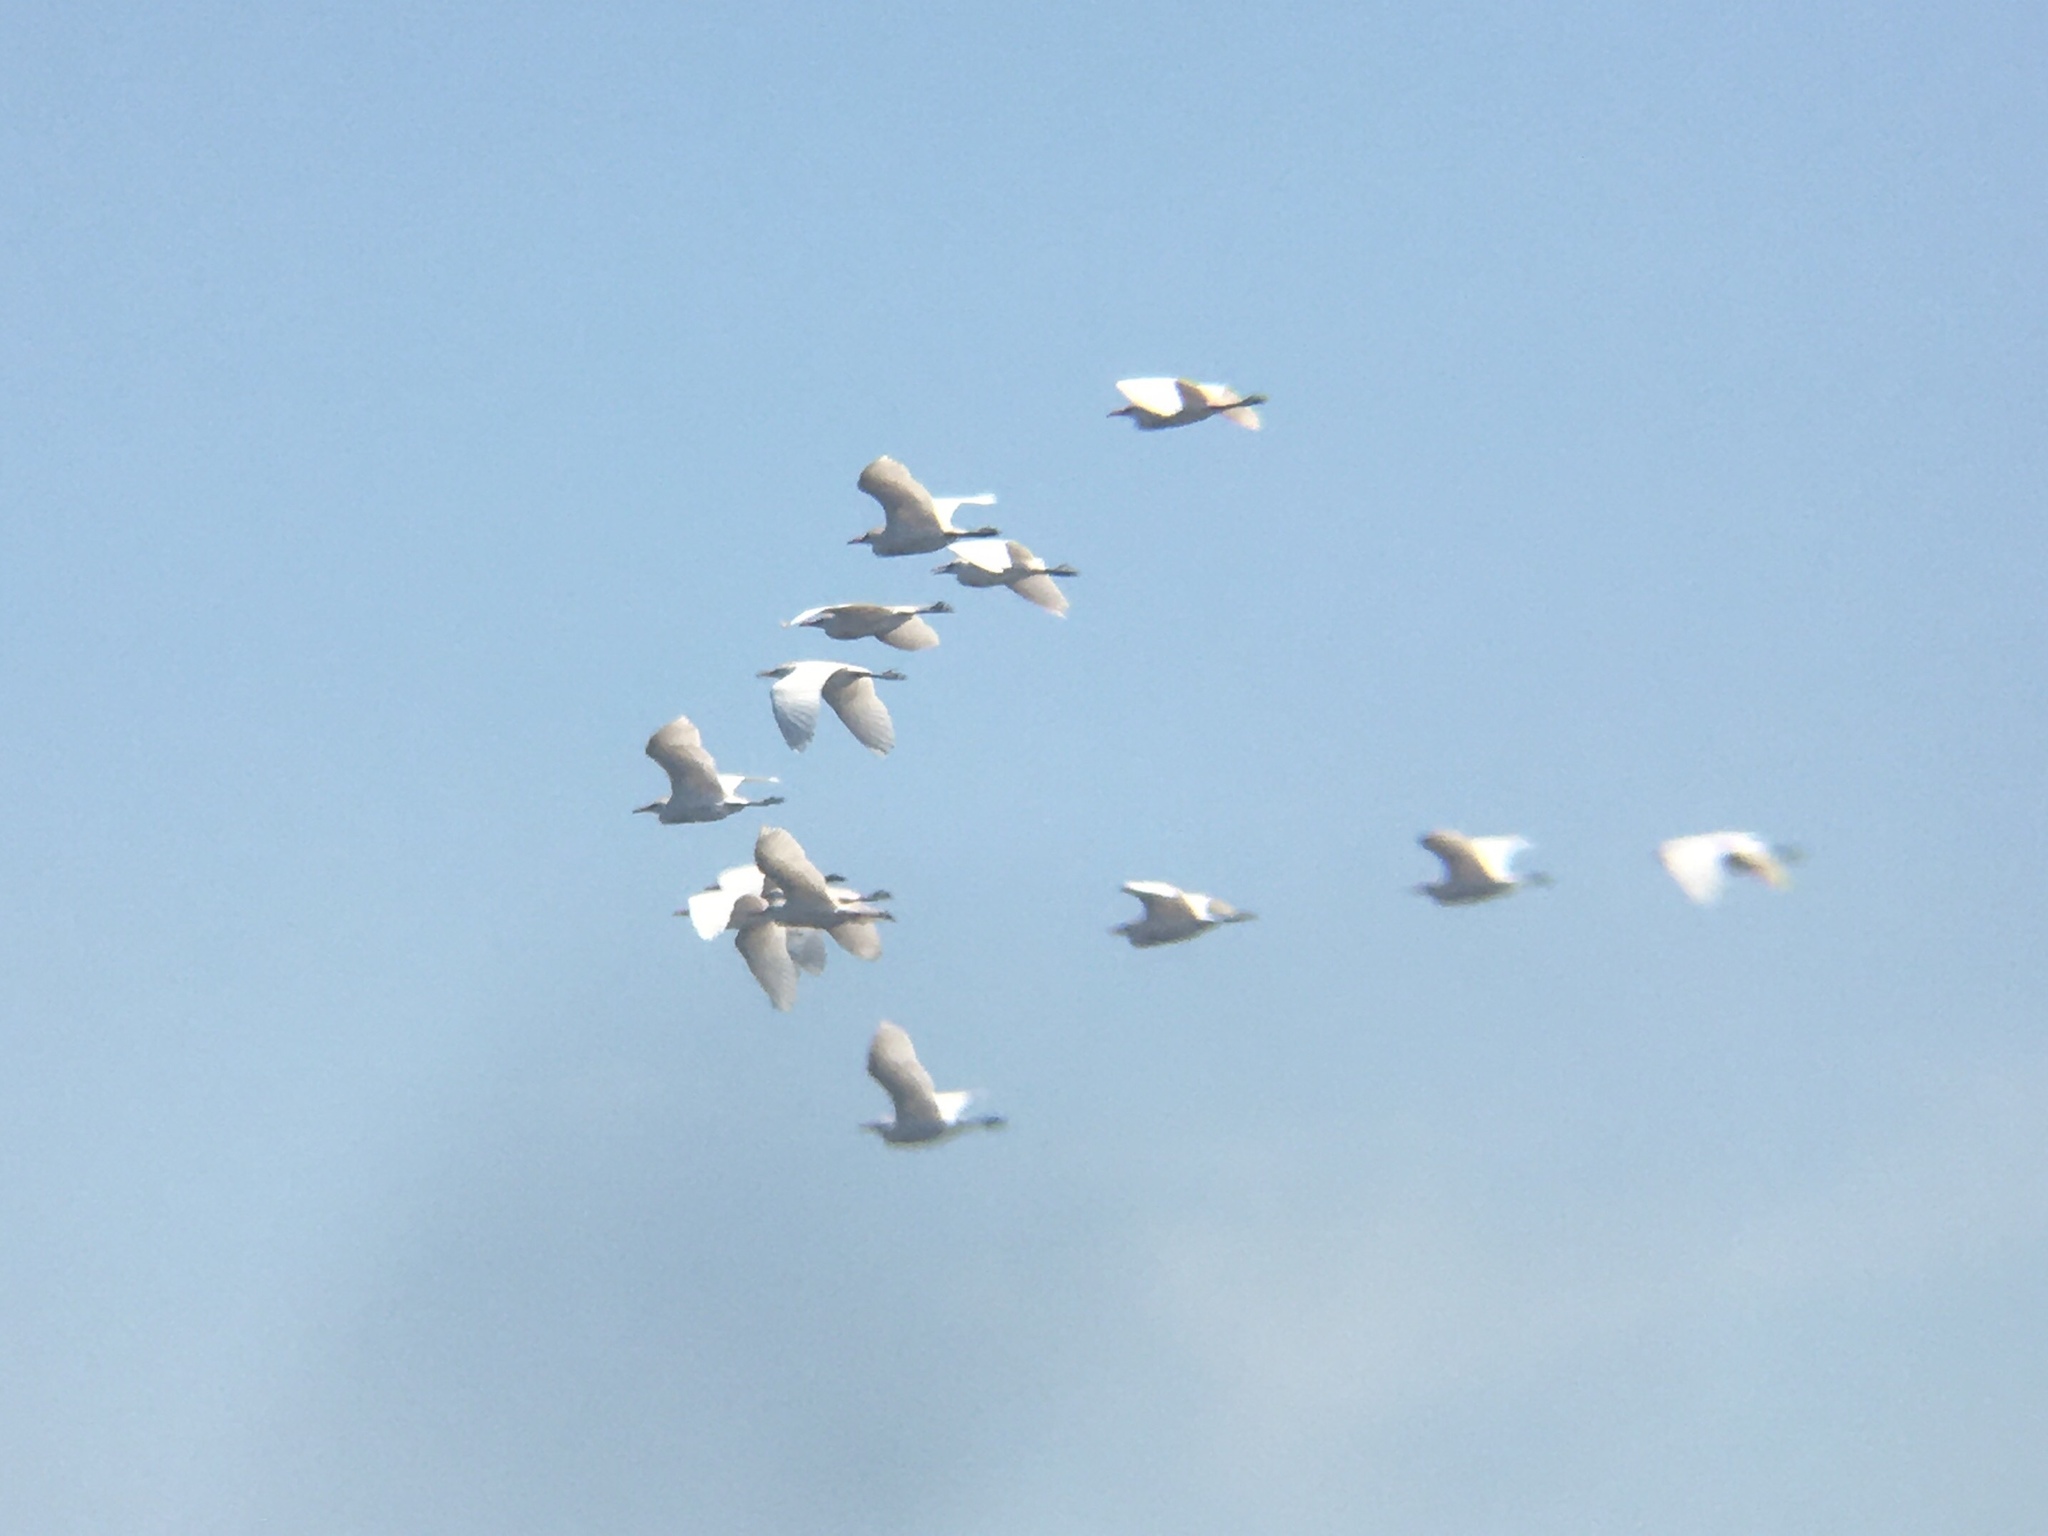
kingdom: Animalia
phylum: Chordata
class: Aves
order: Pelecaniformes
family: Ardeidae
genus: Bubulcus
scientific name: Bubulcus ibis
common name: Cattle egret
